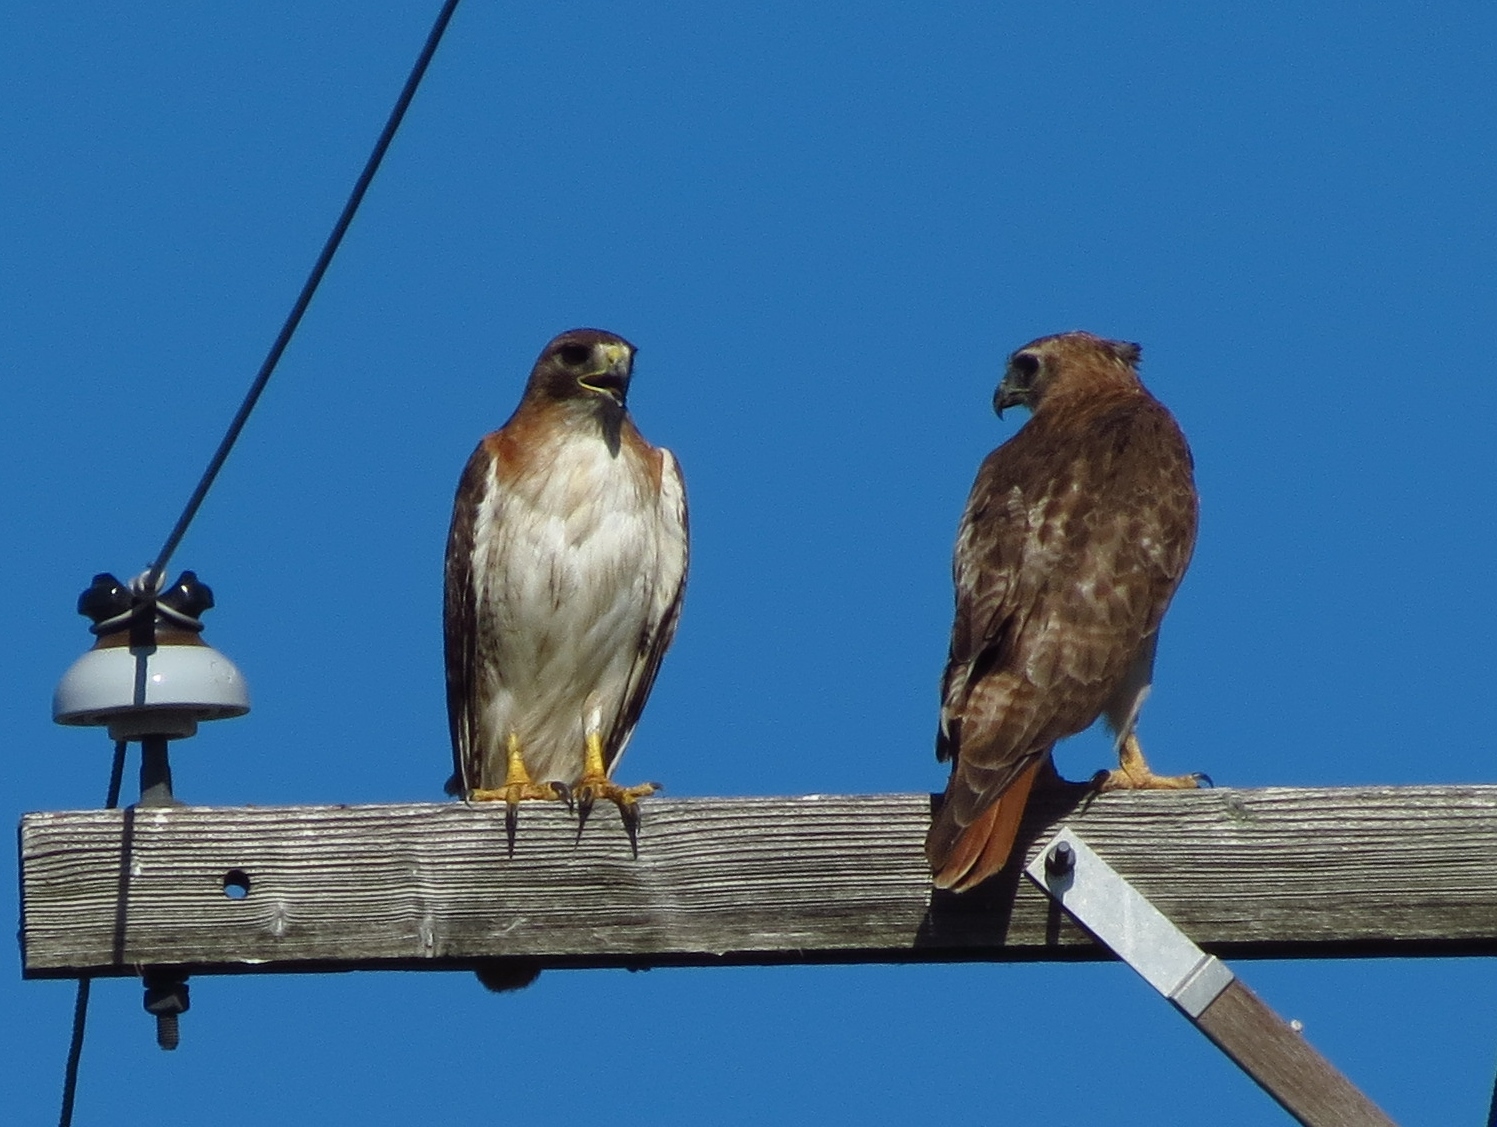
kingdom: Animalia
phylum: Chordata
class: Aves
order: Accipitriformes
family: Accipitridae
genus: Buteo
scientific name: Buteo jamaicensis
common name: Red-tailed hawk
